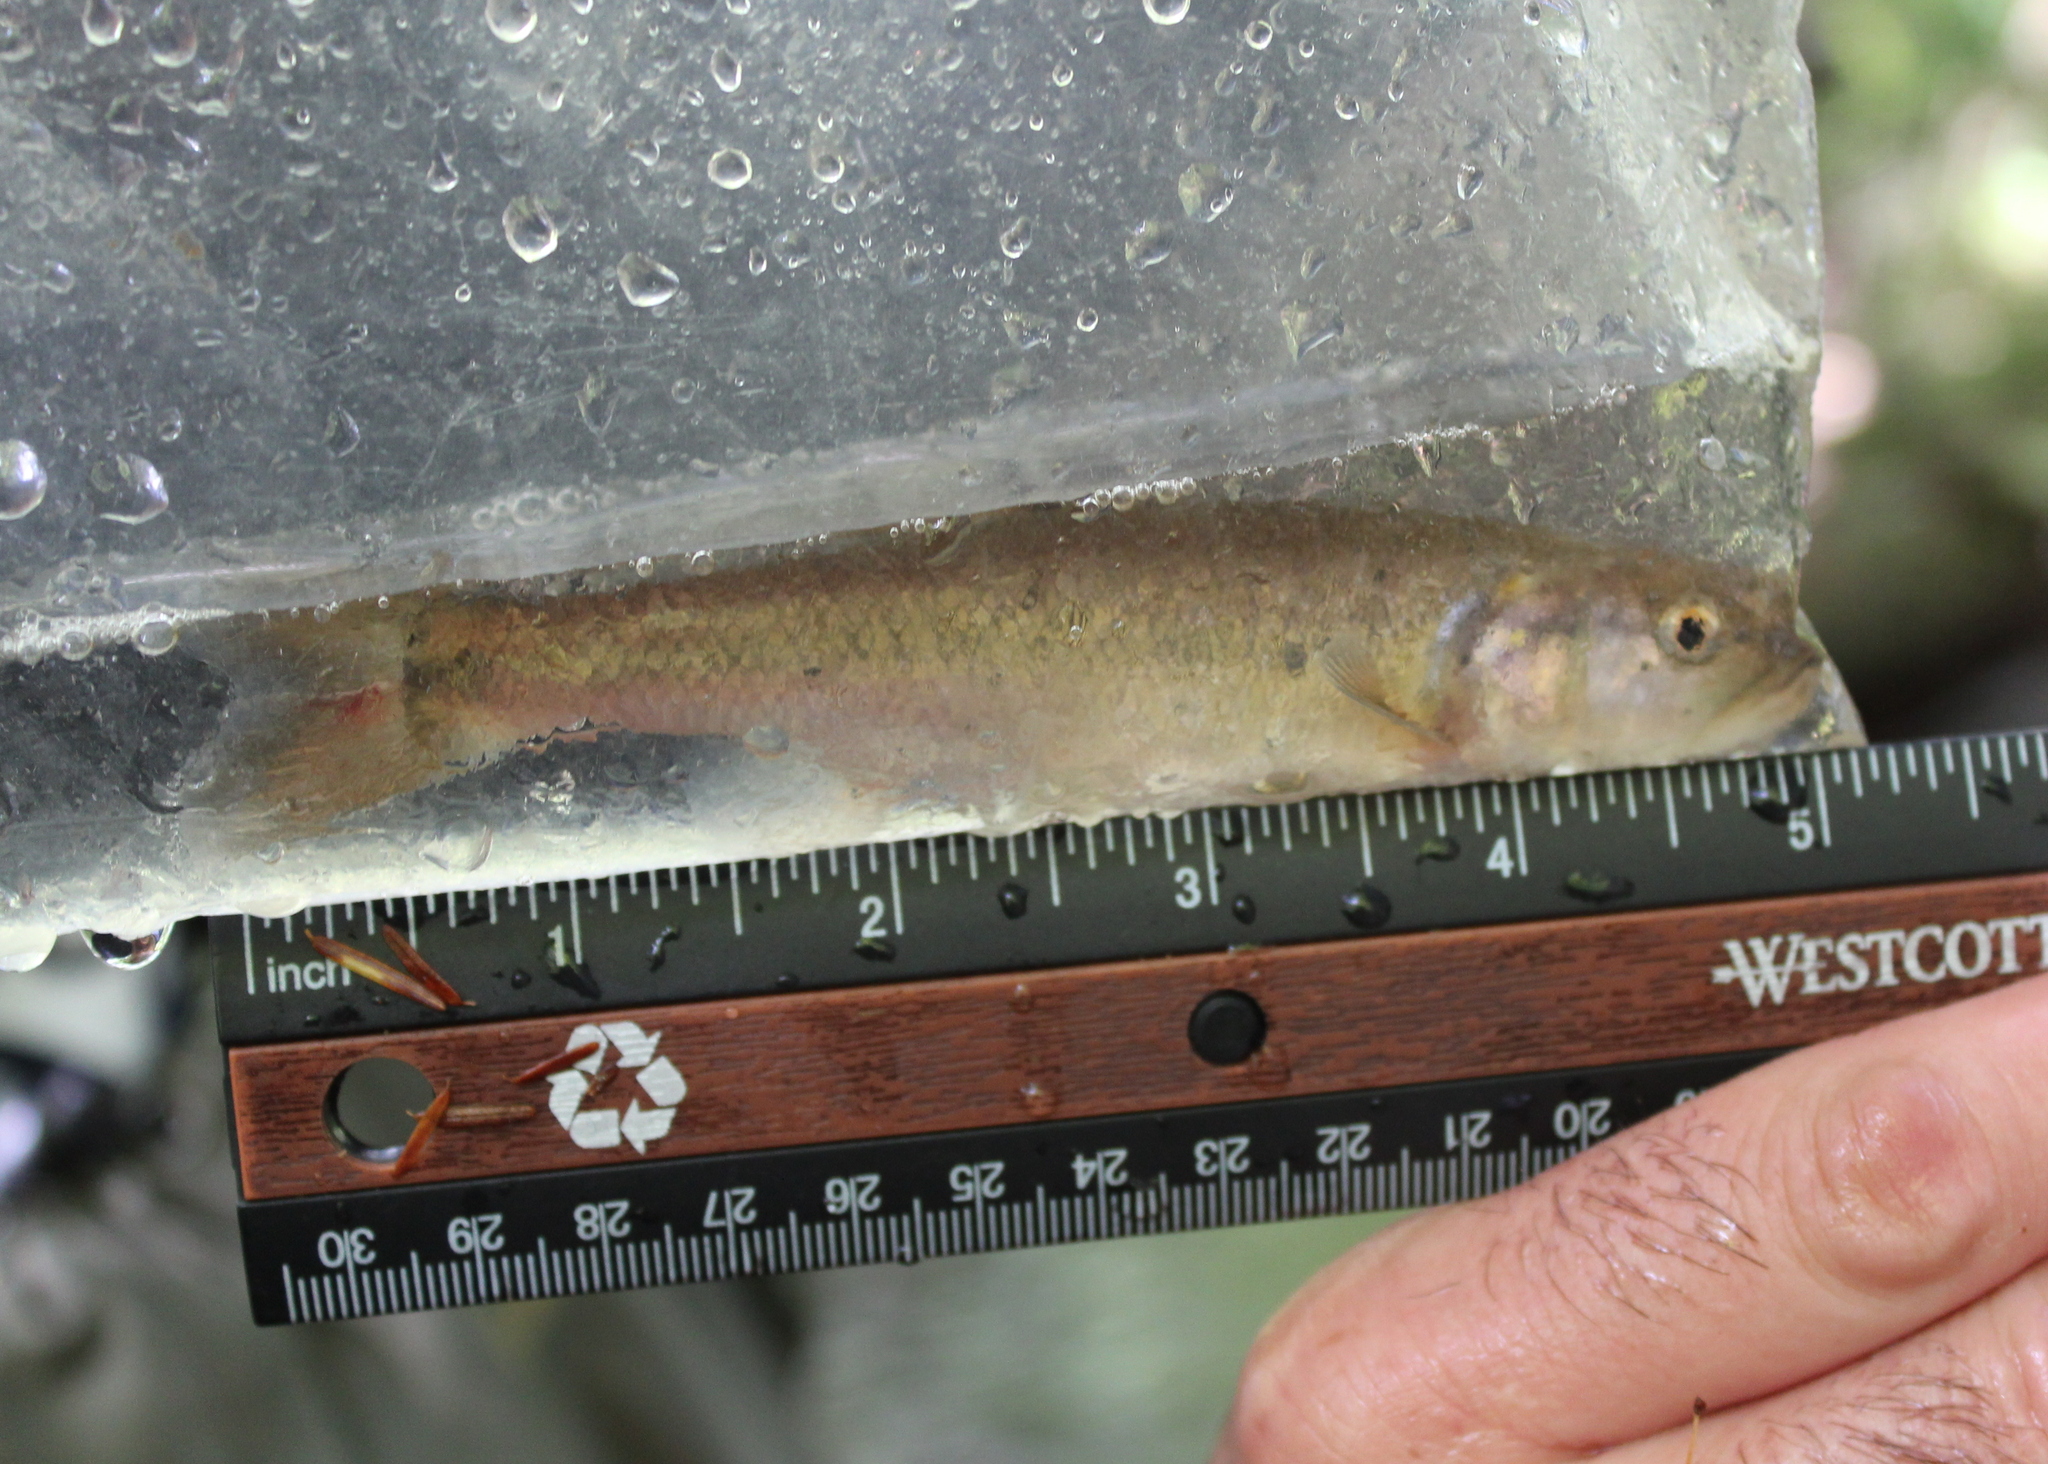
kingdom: Animalia
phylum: Chordata
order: Cypriniformes
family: Cyprinidae
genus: Semotilus
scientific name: Semotilus atromaculatus
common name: Creek chub
